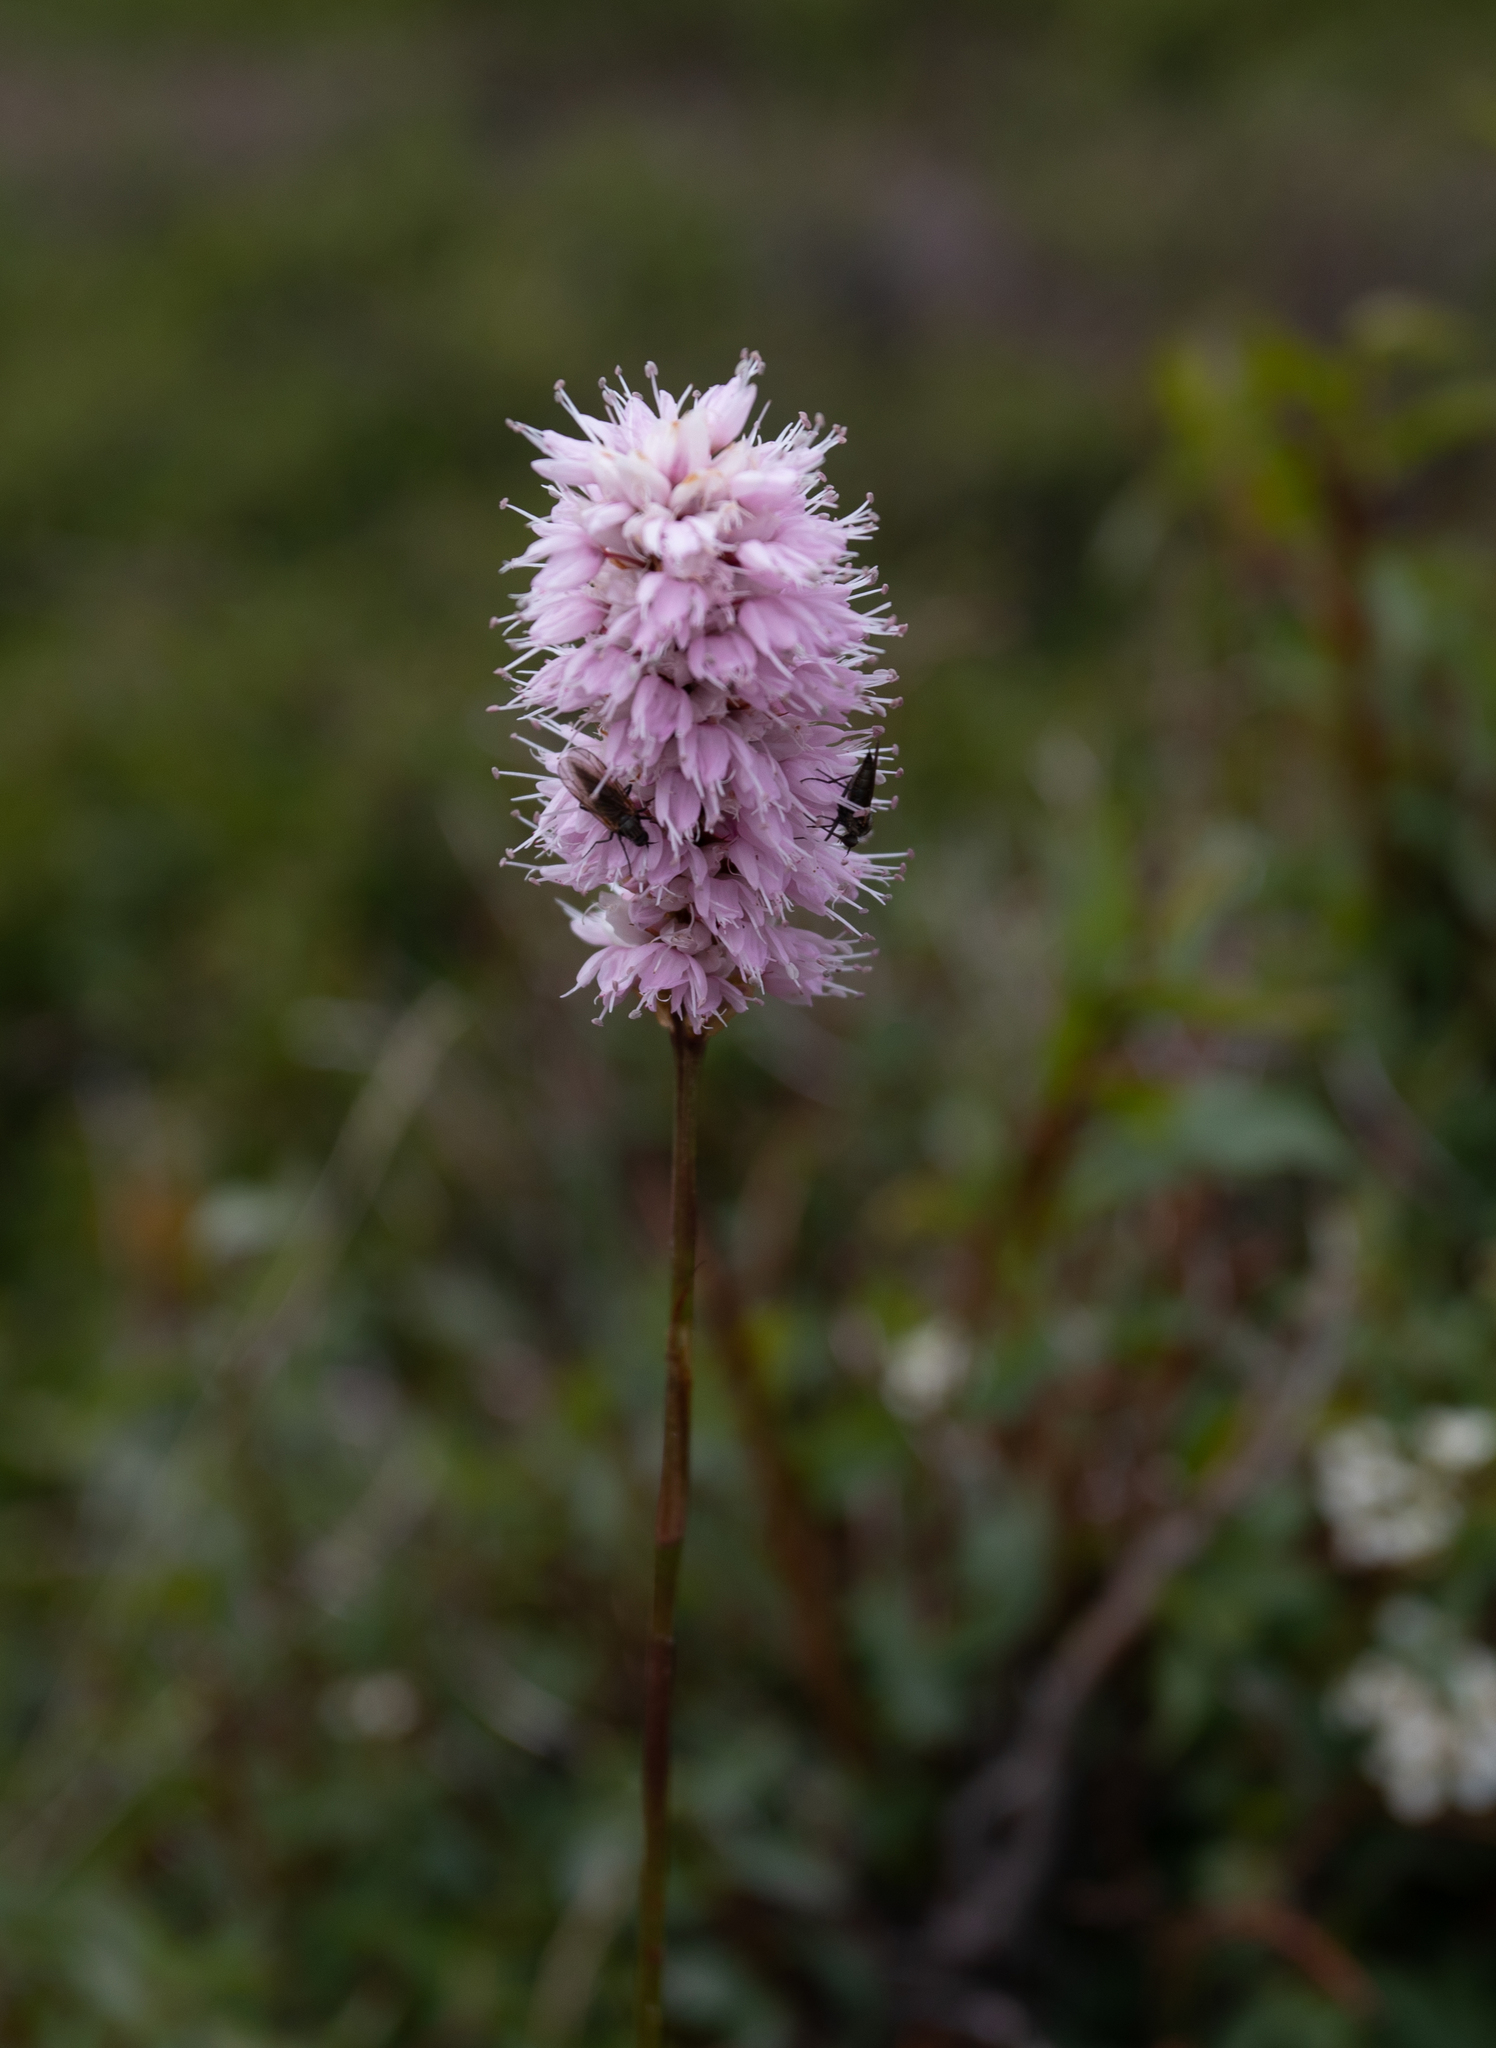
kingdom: Plantae
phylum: Tracheophyta
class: Magnoliopsida
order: Caryophyllales
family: Polygonaceae
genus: Bistorta
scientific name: Bistorta officinalis
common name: Common bistort
